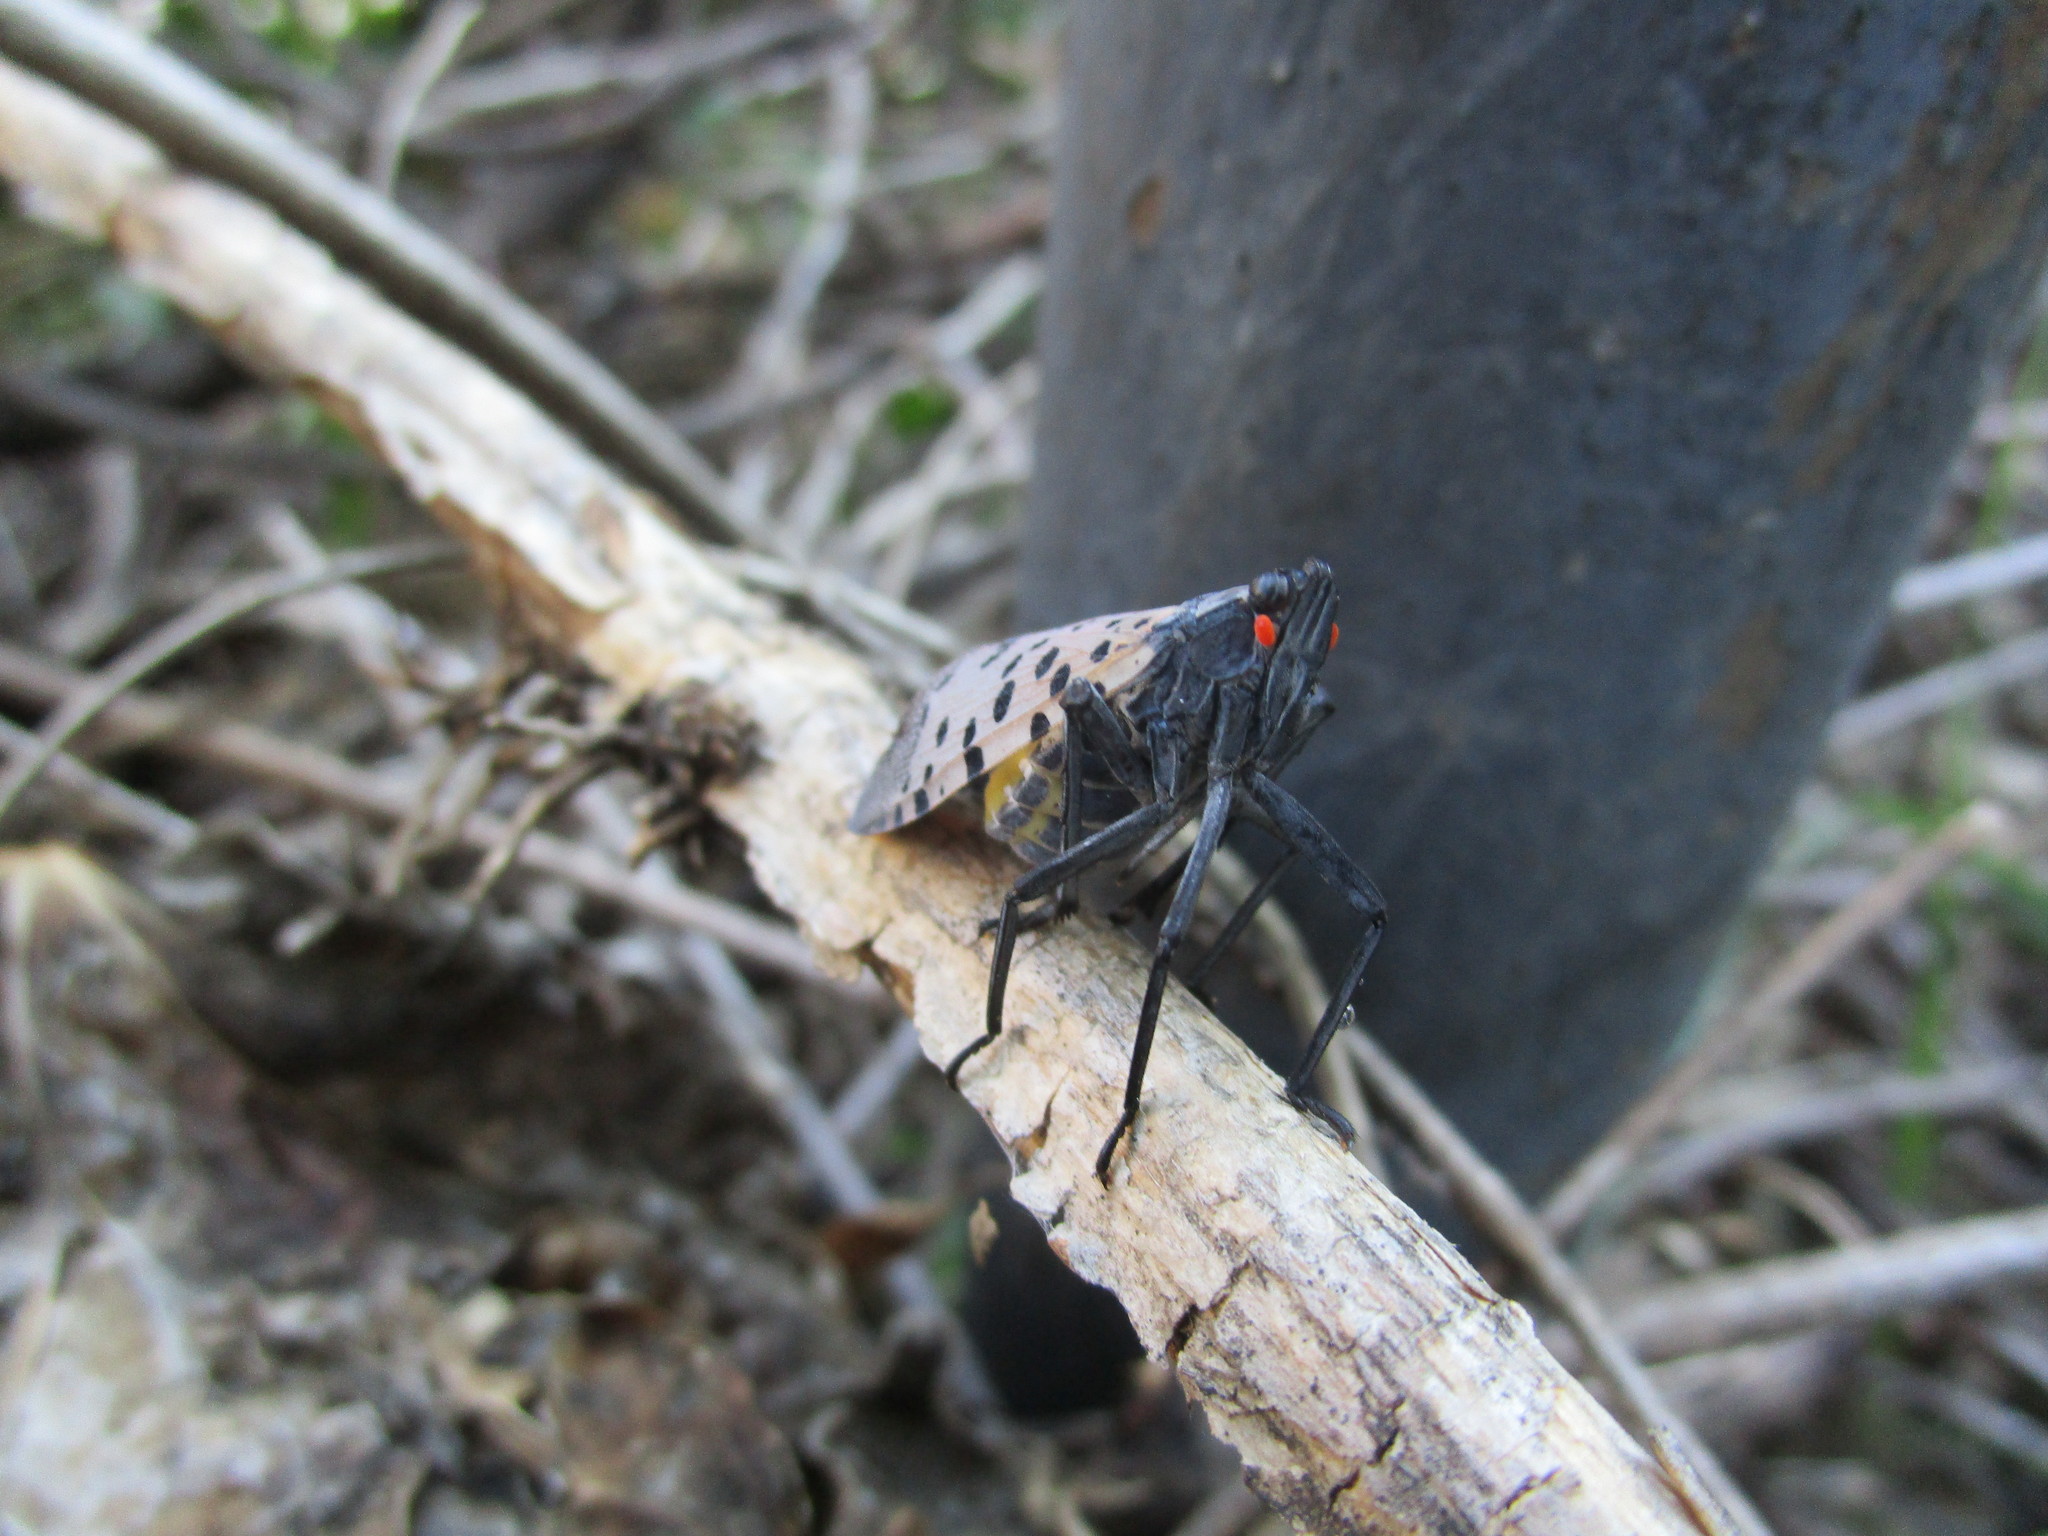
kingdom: Animalia
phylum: Arthropoda
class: Insecta
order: Hemiptera
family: Fulgoridae
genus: Lycorma
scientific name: Lycorma delicatula
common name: Spotted lanternfly
